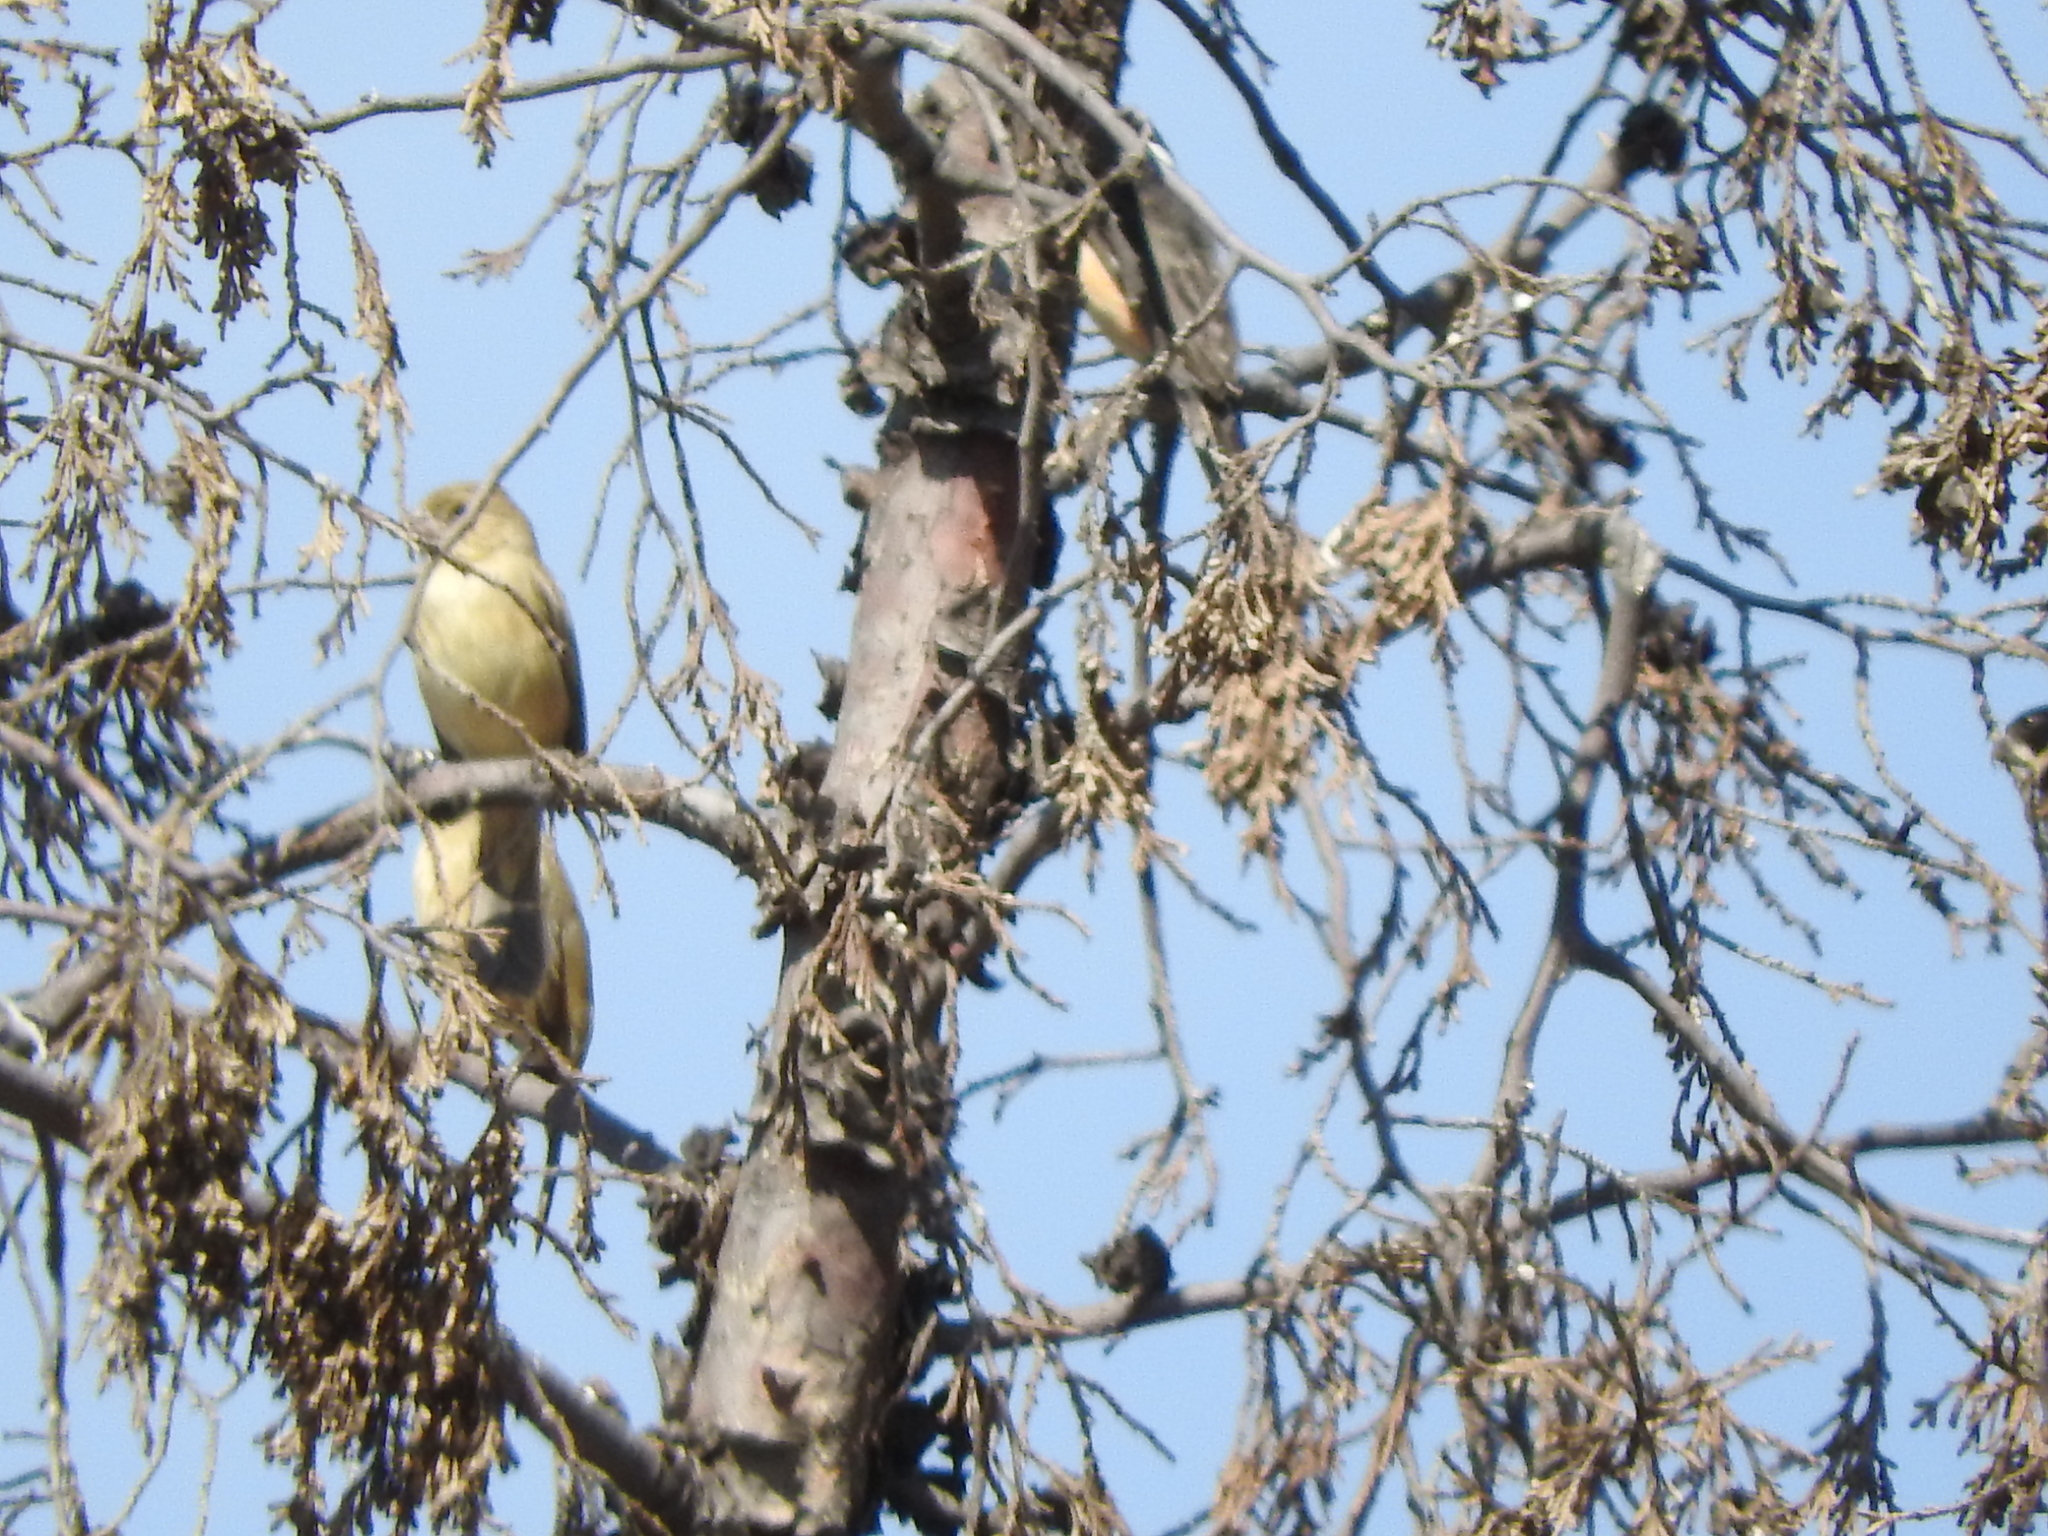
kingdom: Animalia
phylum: Chordata
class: Aves
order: Passeriformes
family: Thraupidae
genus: Sporophila
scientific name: Sporophila torqueola
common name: White-collared seedeater
